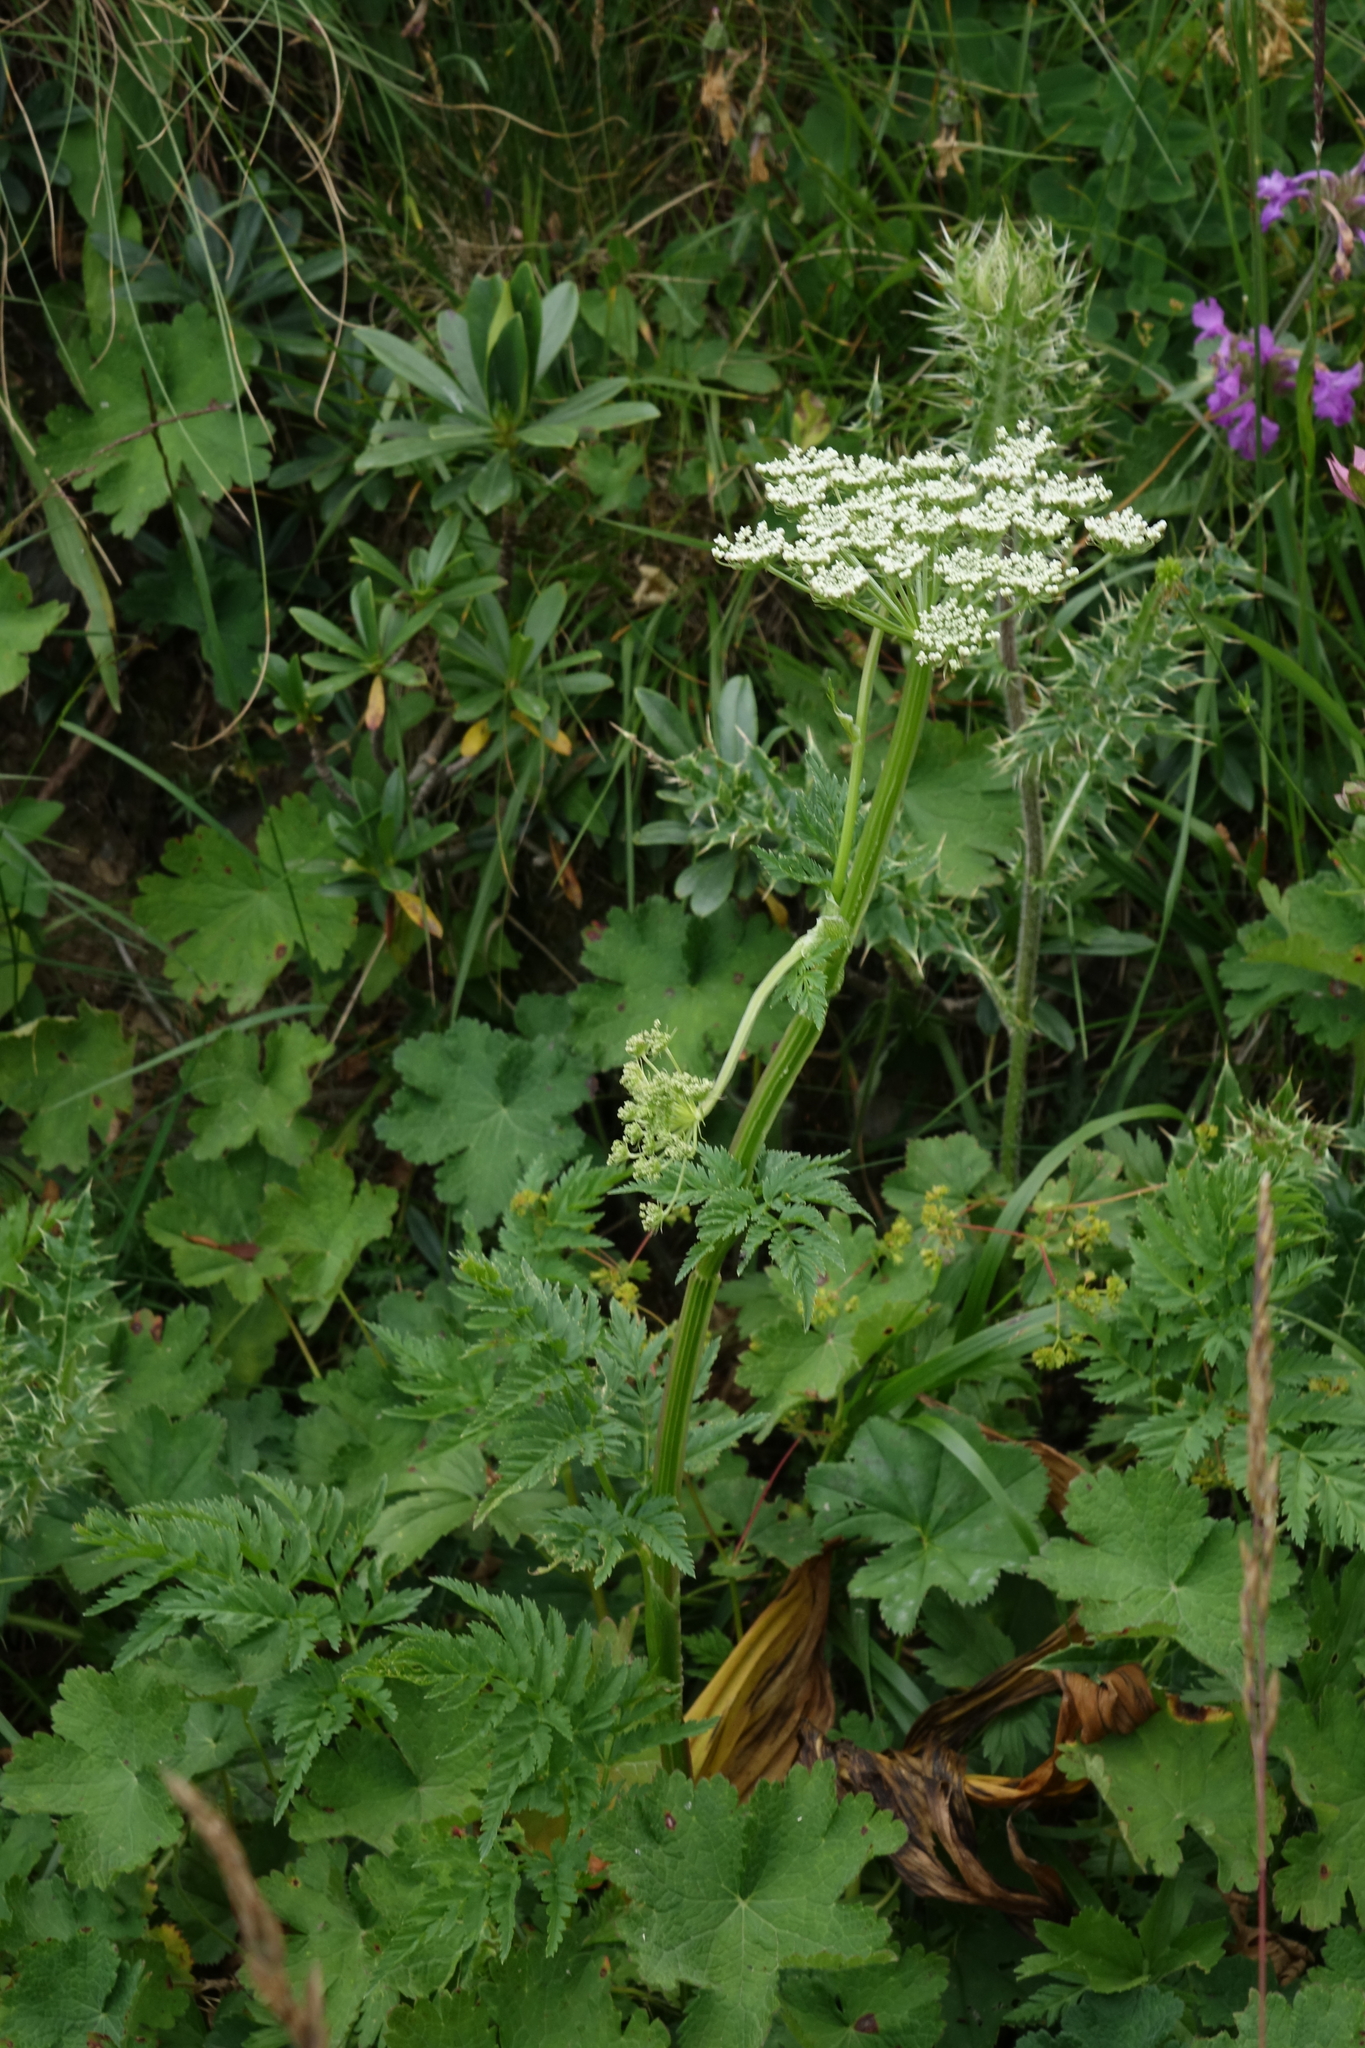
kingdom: Plantae
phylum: Tracheophyta
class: Magnoliopsida
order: Apiales
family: Apiaceae
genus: Selinum
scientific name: Selinum alatum
